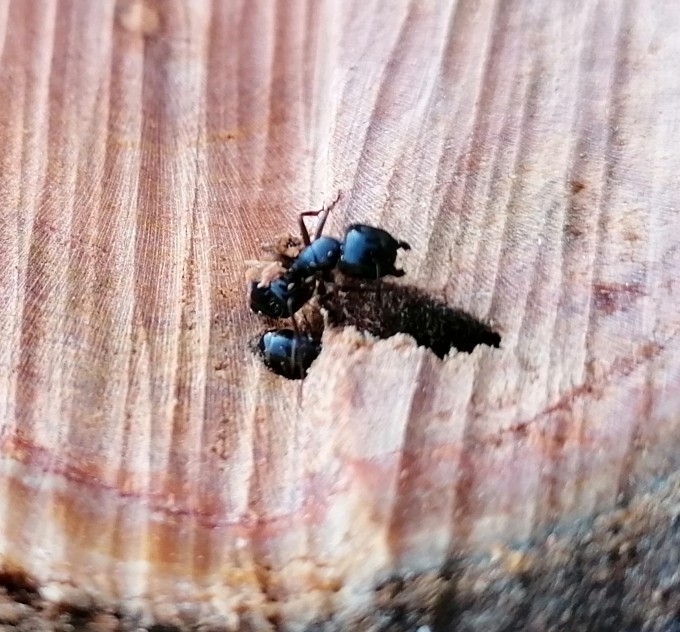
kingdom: Animalia
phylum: Arthropoda
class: Insecta
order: Hymenoptera
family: Formicidae
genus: Camponotus
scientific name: Camponotus vagus
